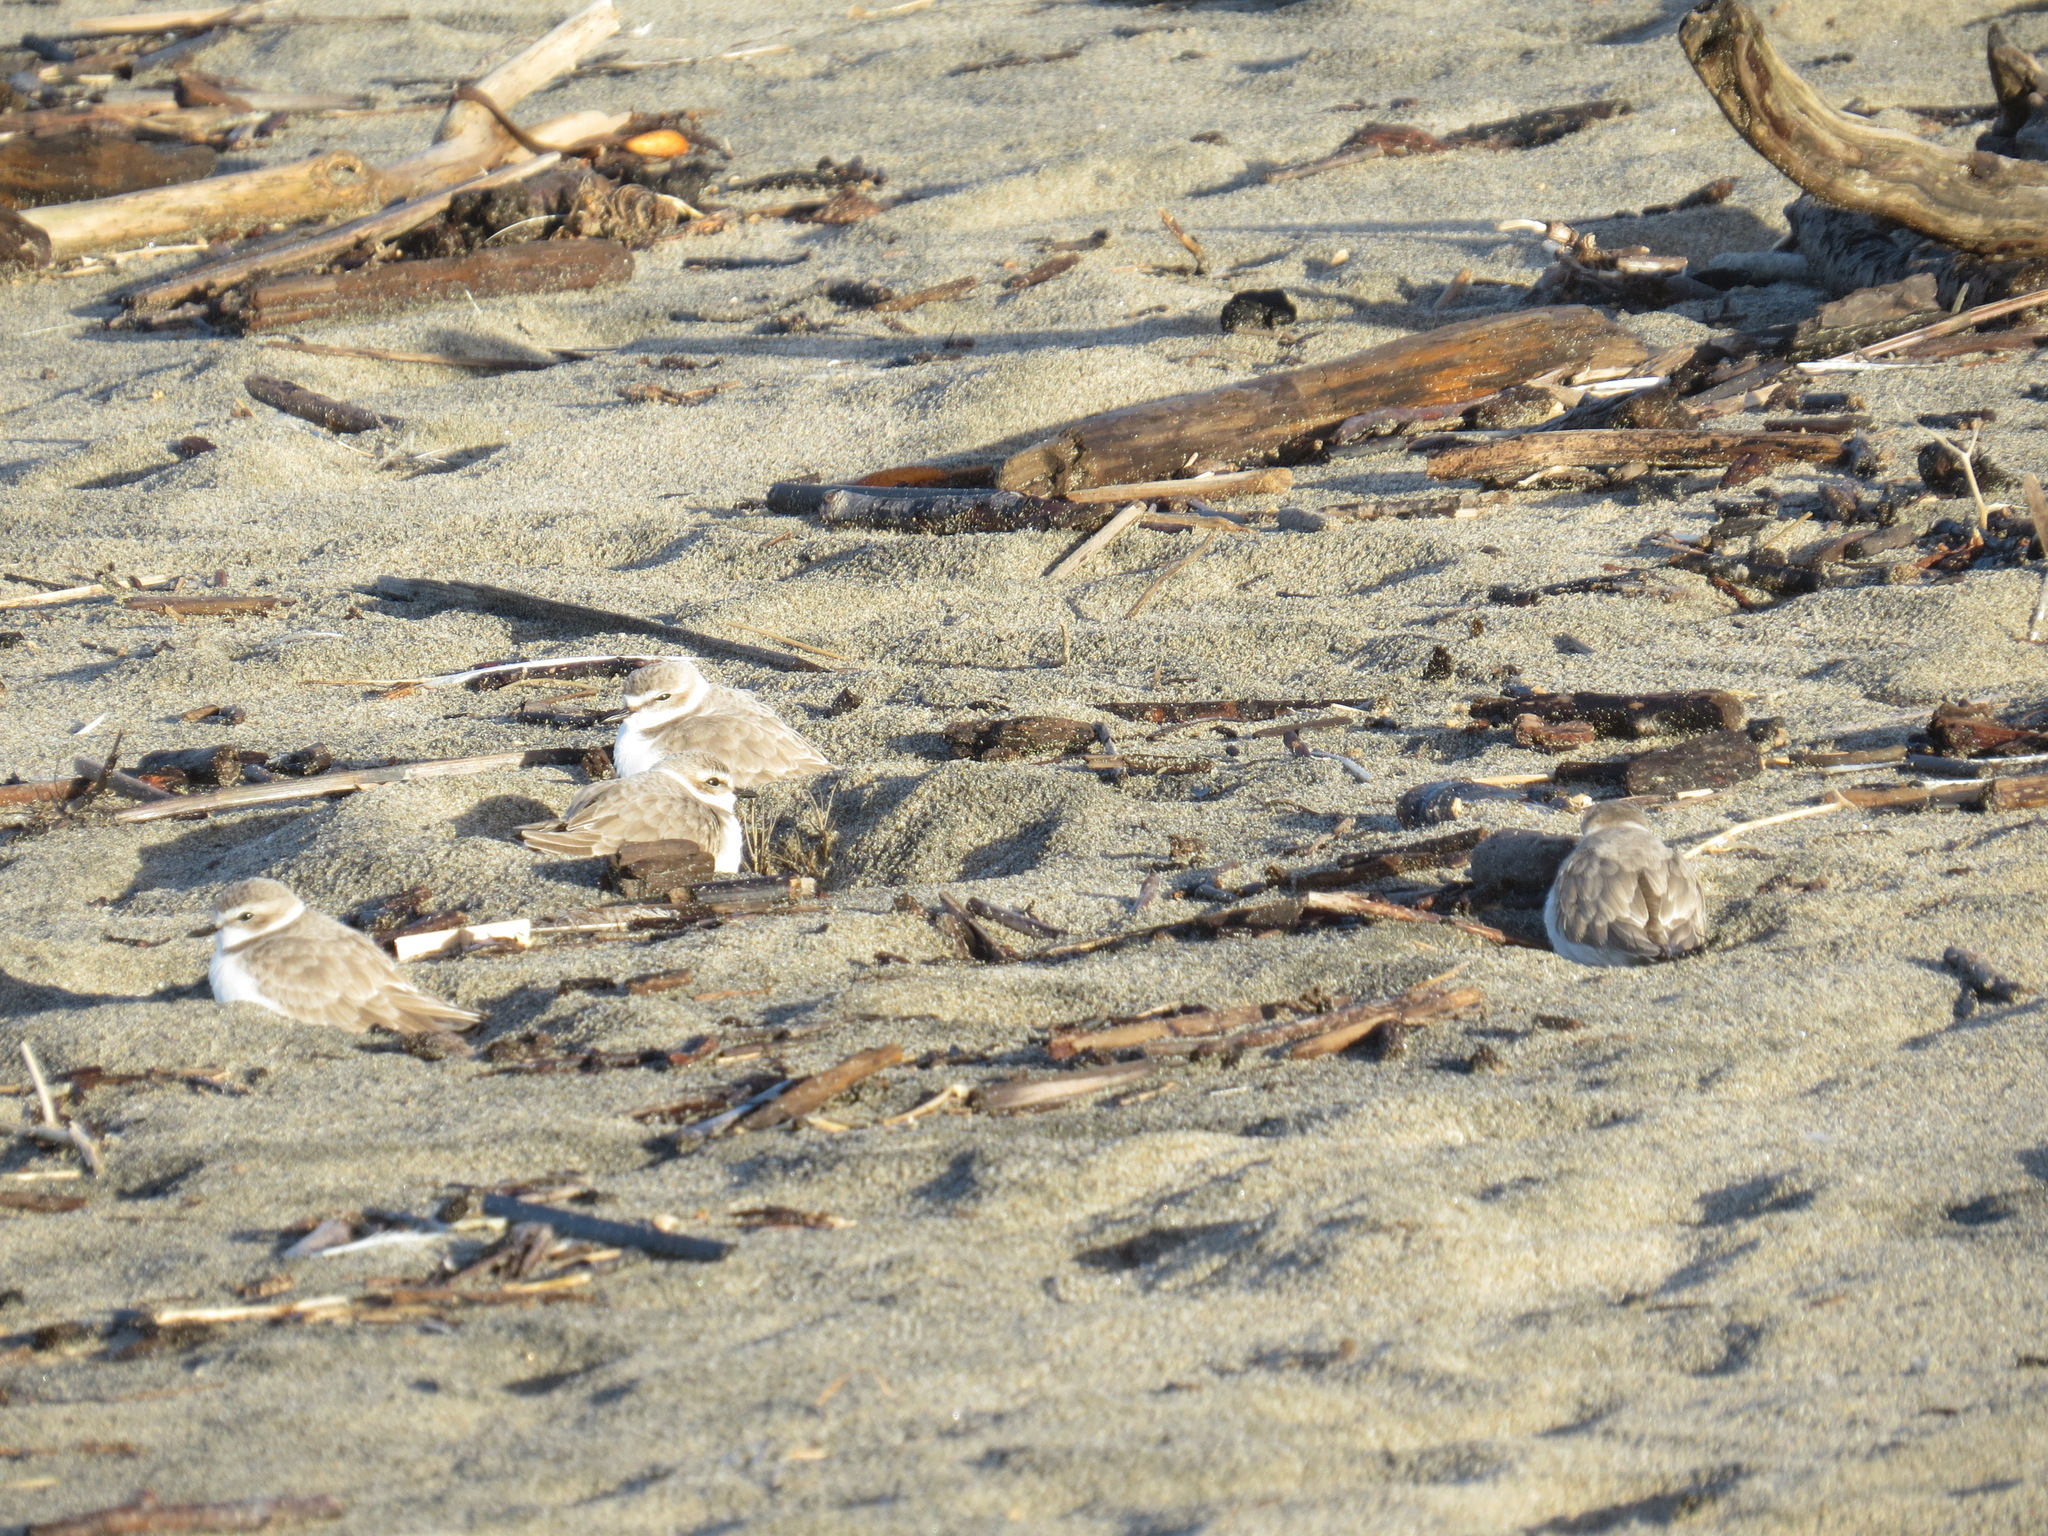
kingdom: Animalia
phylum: Chordata
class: Aves
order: Charadriiformes
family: Charadriidae
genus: Anarhynchus
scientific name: Anarhynchus
